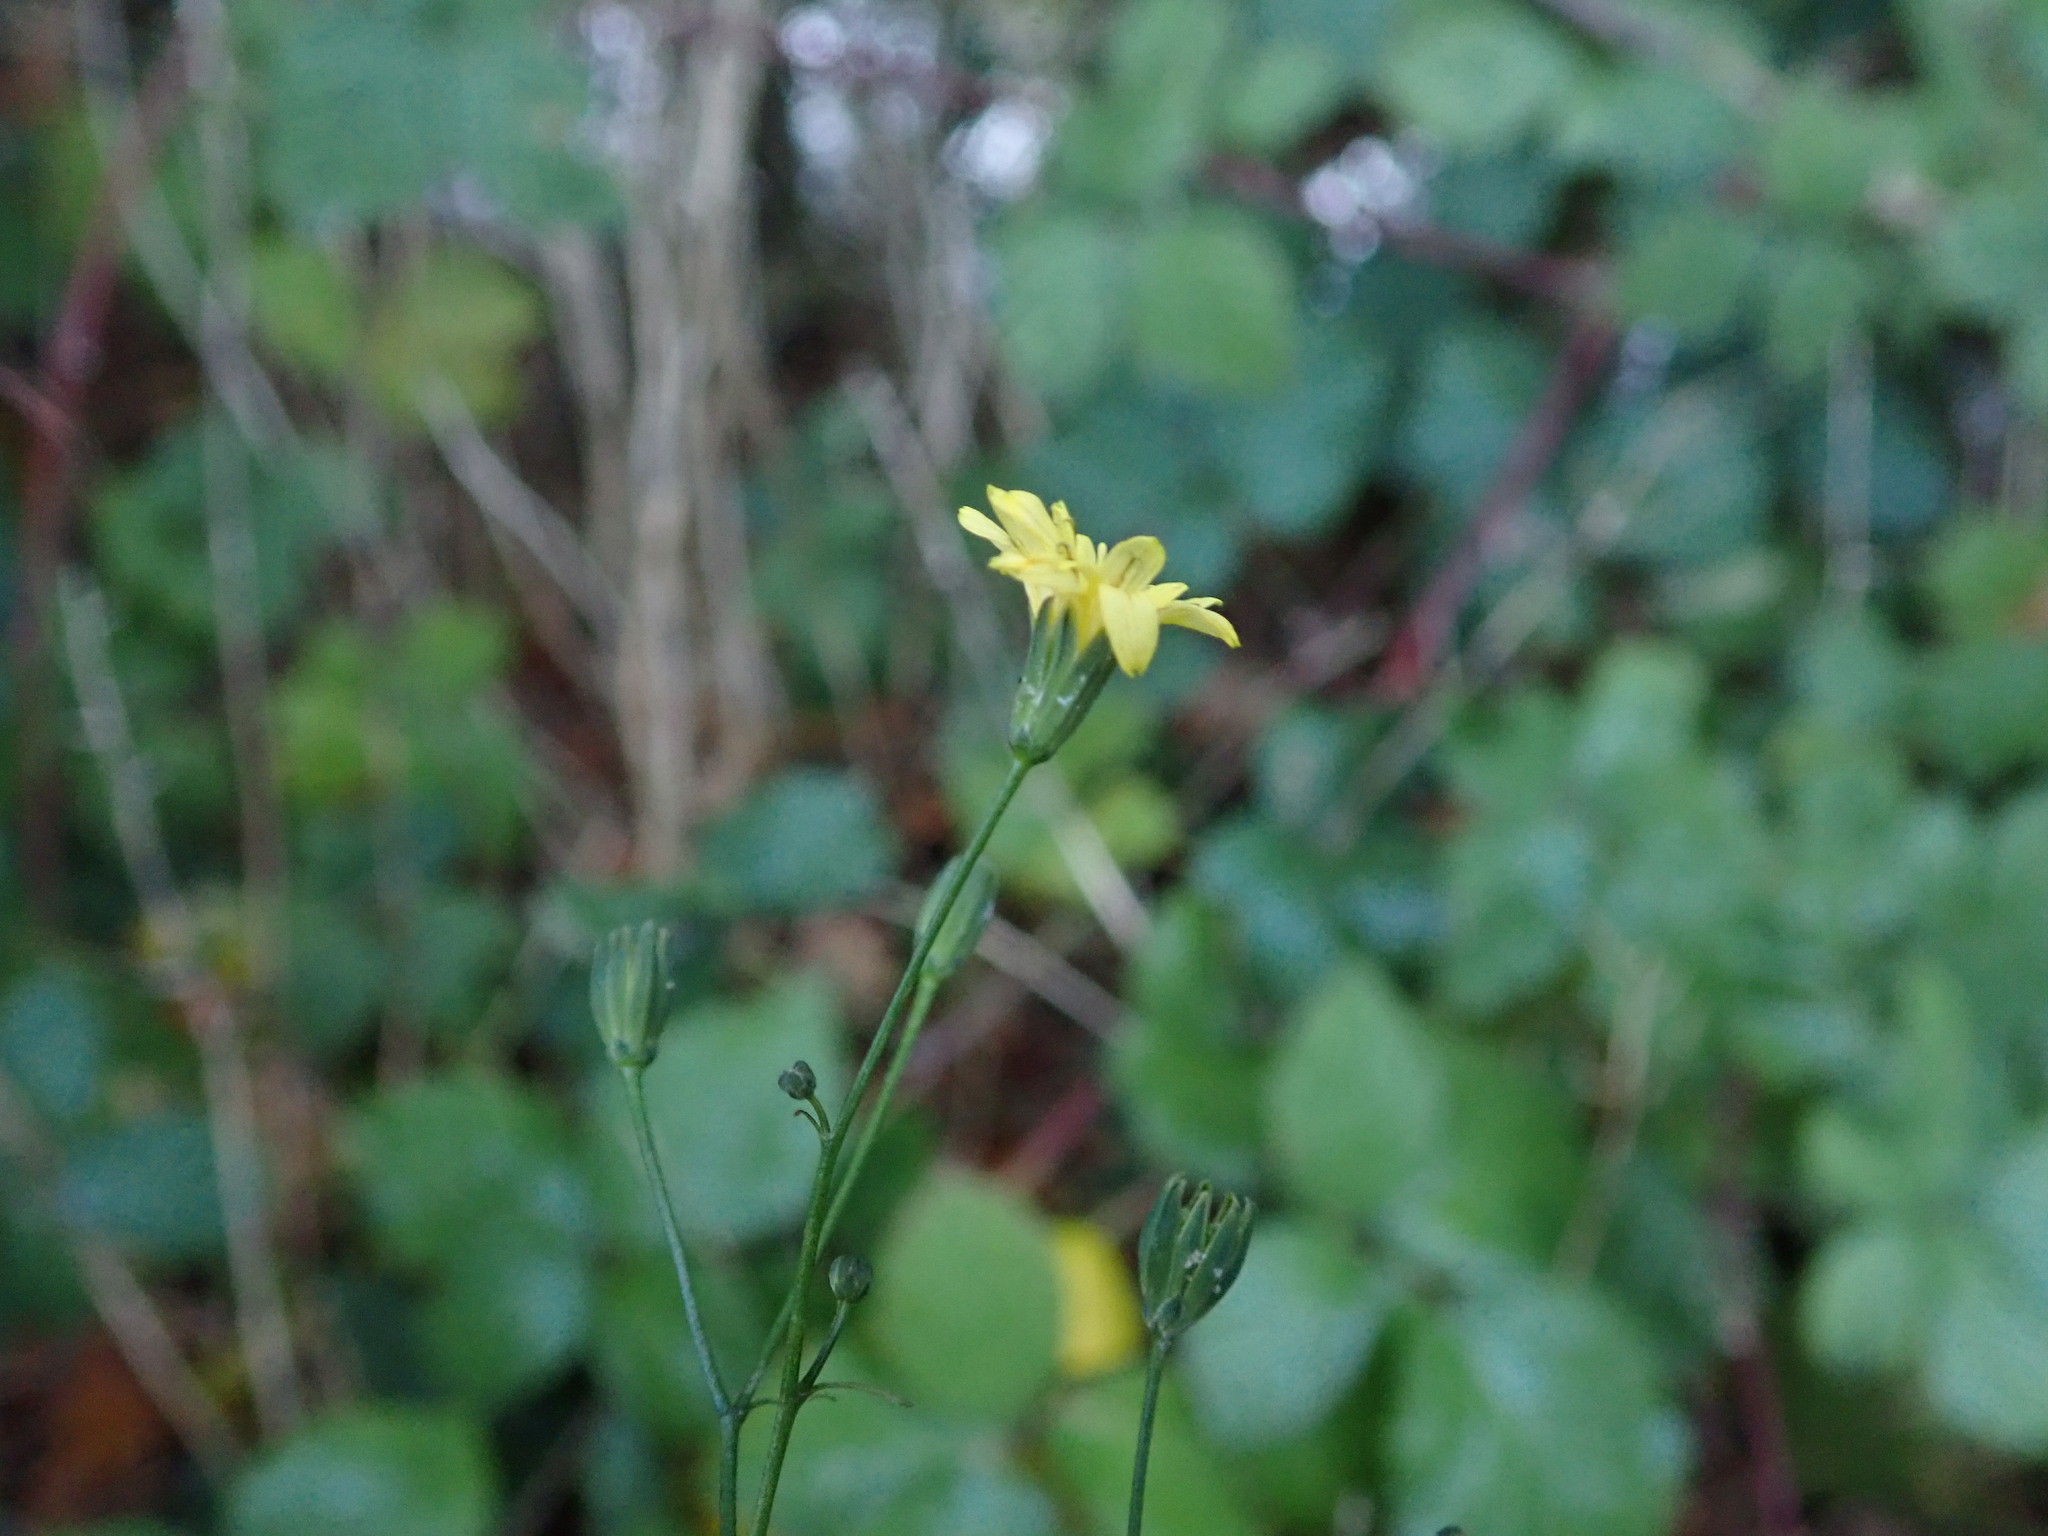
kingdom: Plantae
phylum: Tracheophyta
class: Magnoliopsida
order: Asterales
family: Asteraceae
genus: Lapsana
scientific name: Lapsana communis
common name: Nipplewort
